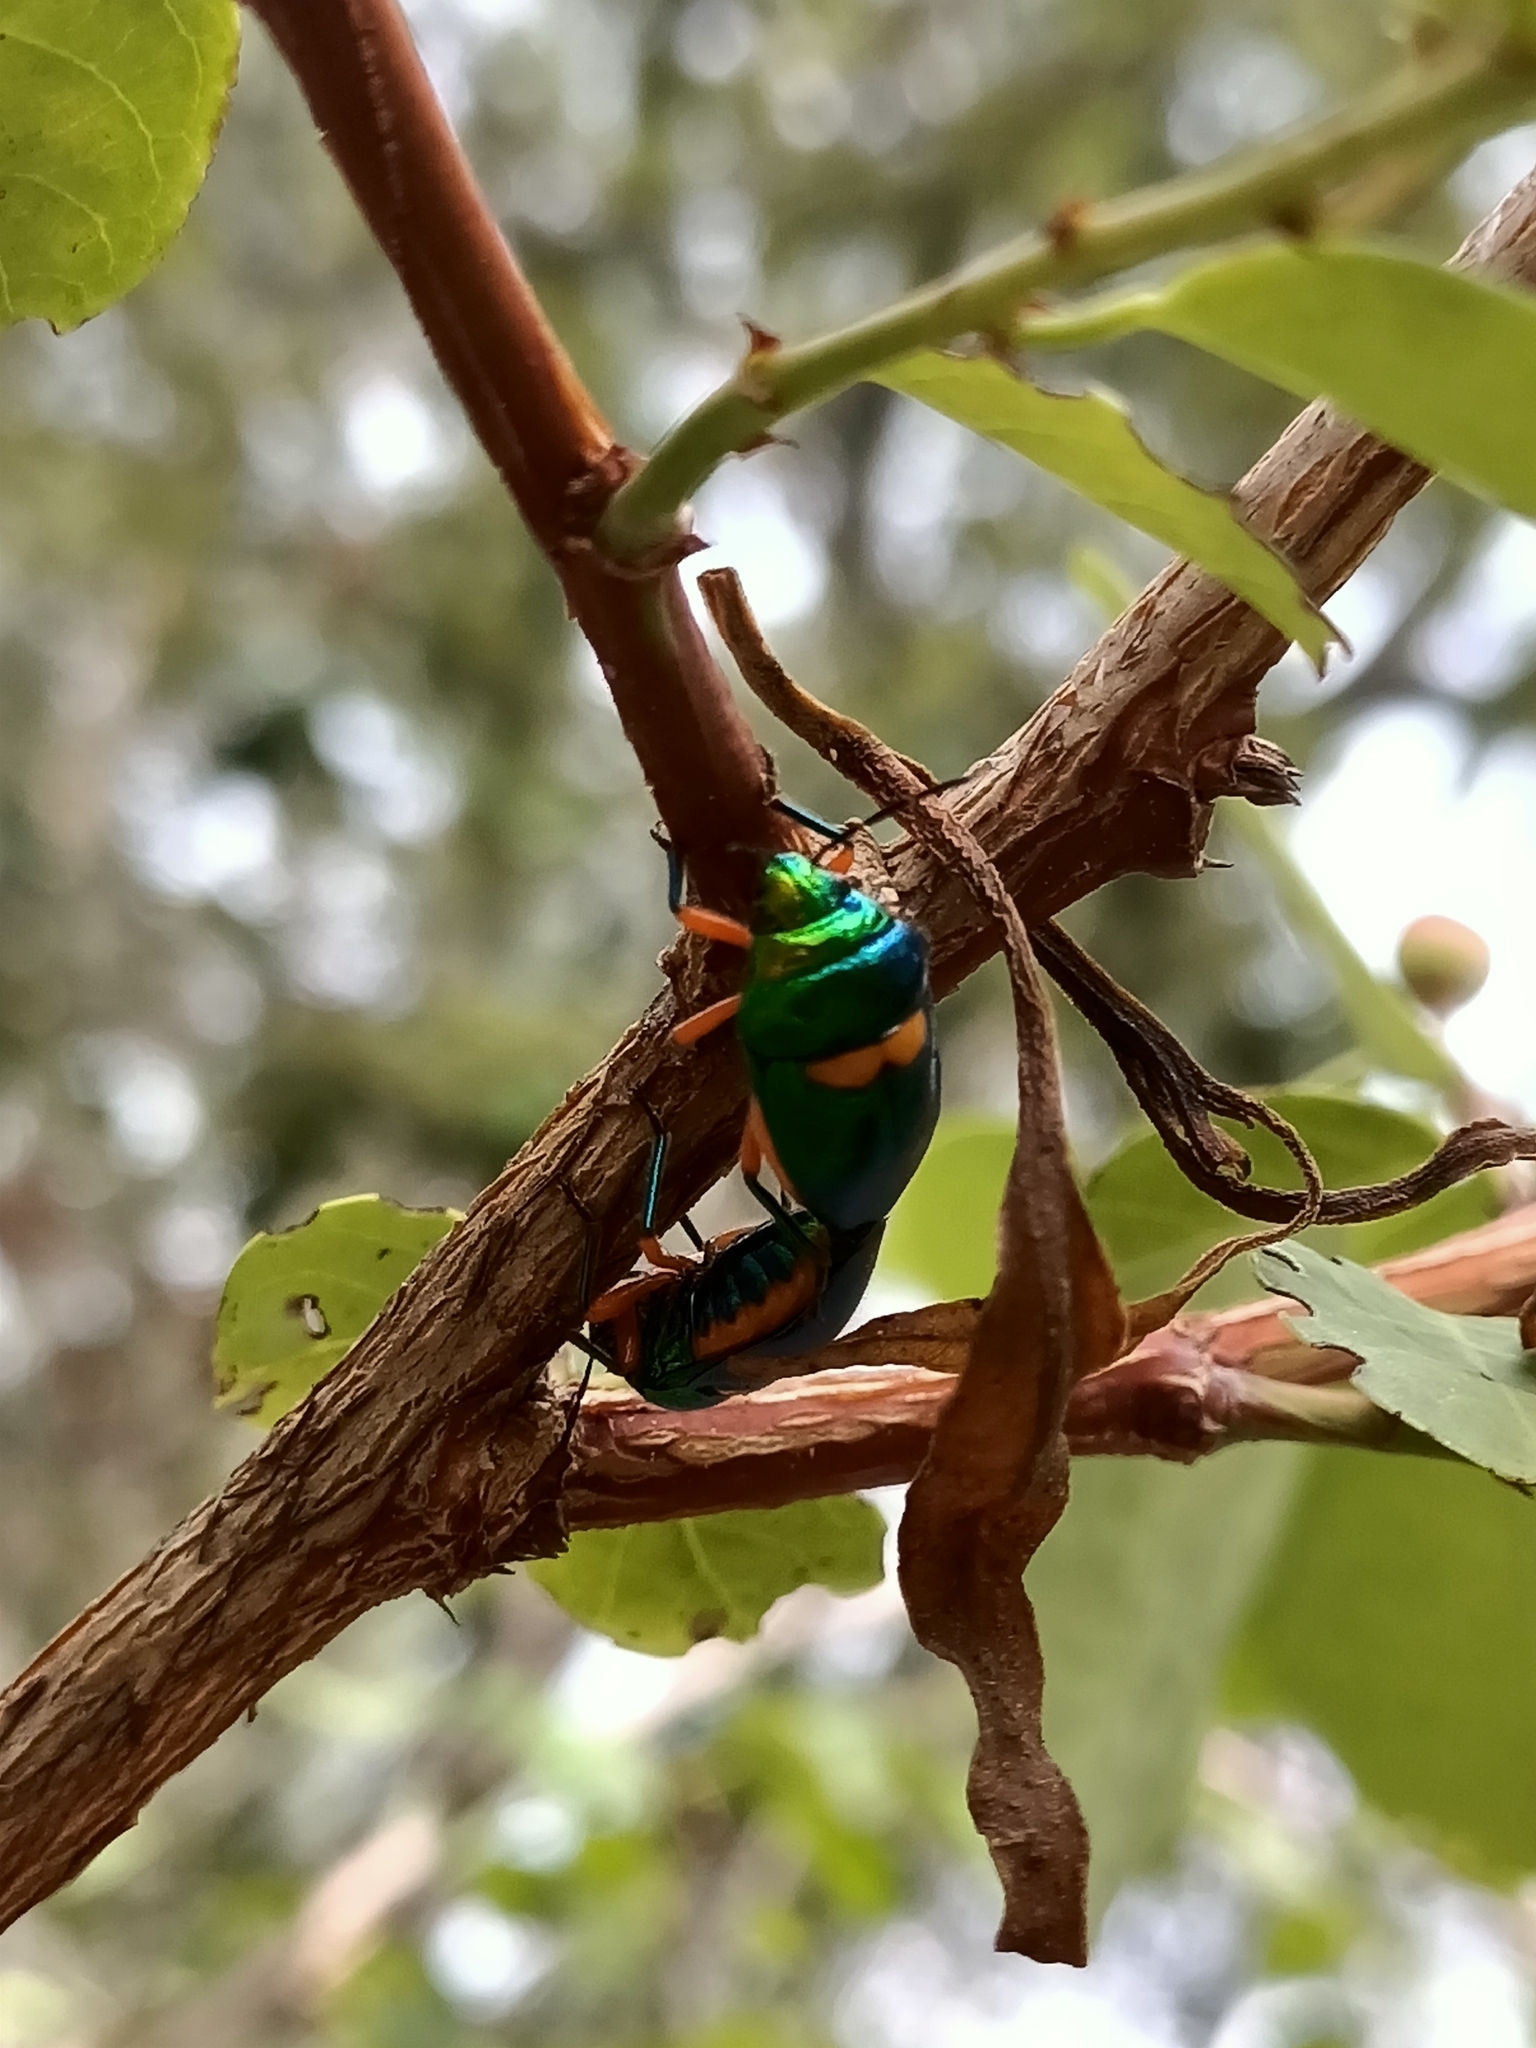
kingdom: Animalia
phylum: Arthropoda
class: Insecta
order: Hemiptera
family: Scutelleridae
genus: Lampromicra
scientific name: Lampromicra senator
